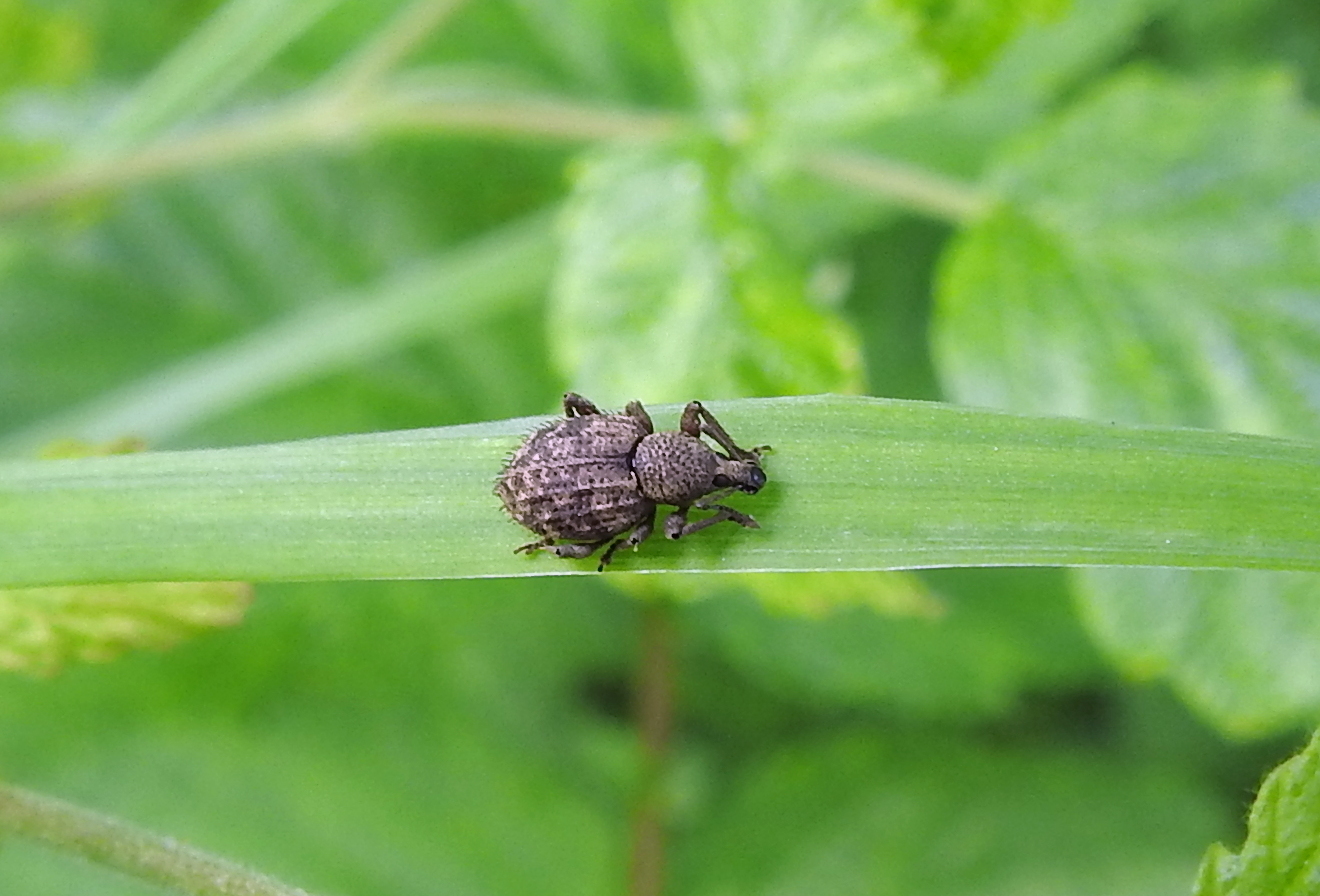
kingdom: Animalia
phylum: Arthropoda
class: Insecta
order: Coleoptera
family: Curculionidae
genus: Otiorhynchus
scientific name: Otiorhynchus carinatopunctatus
